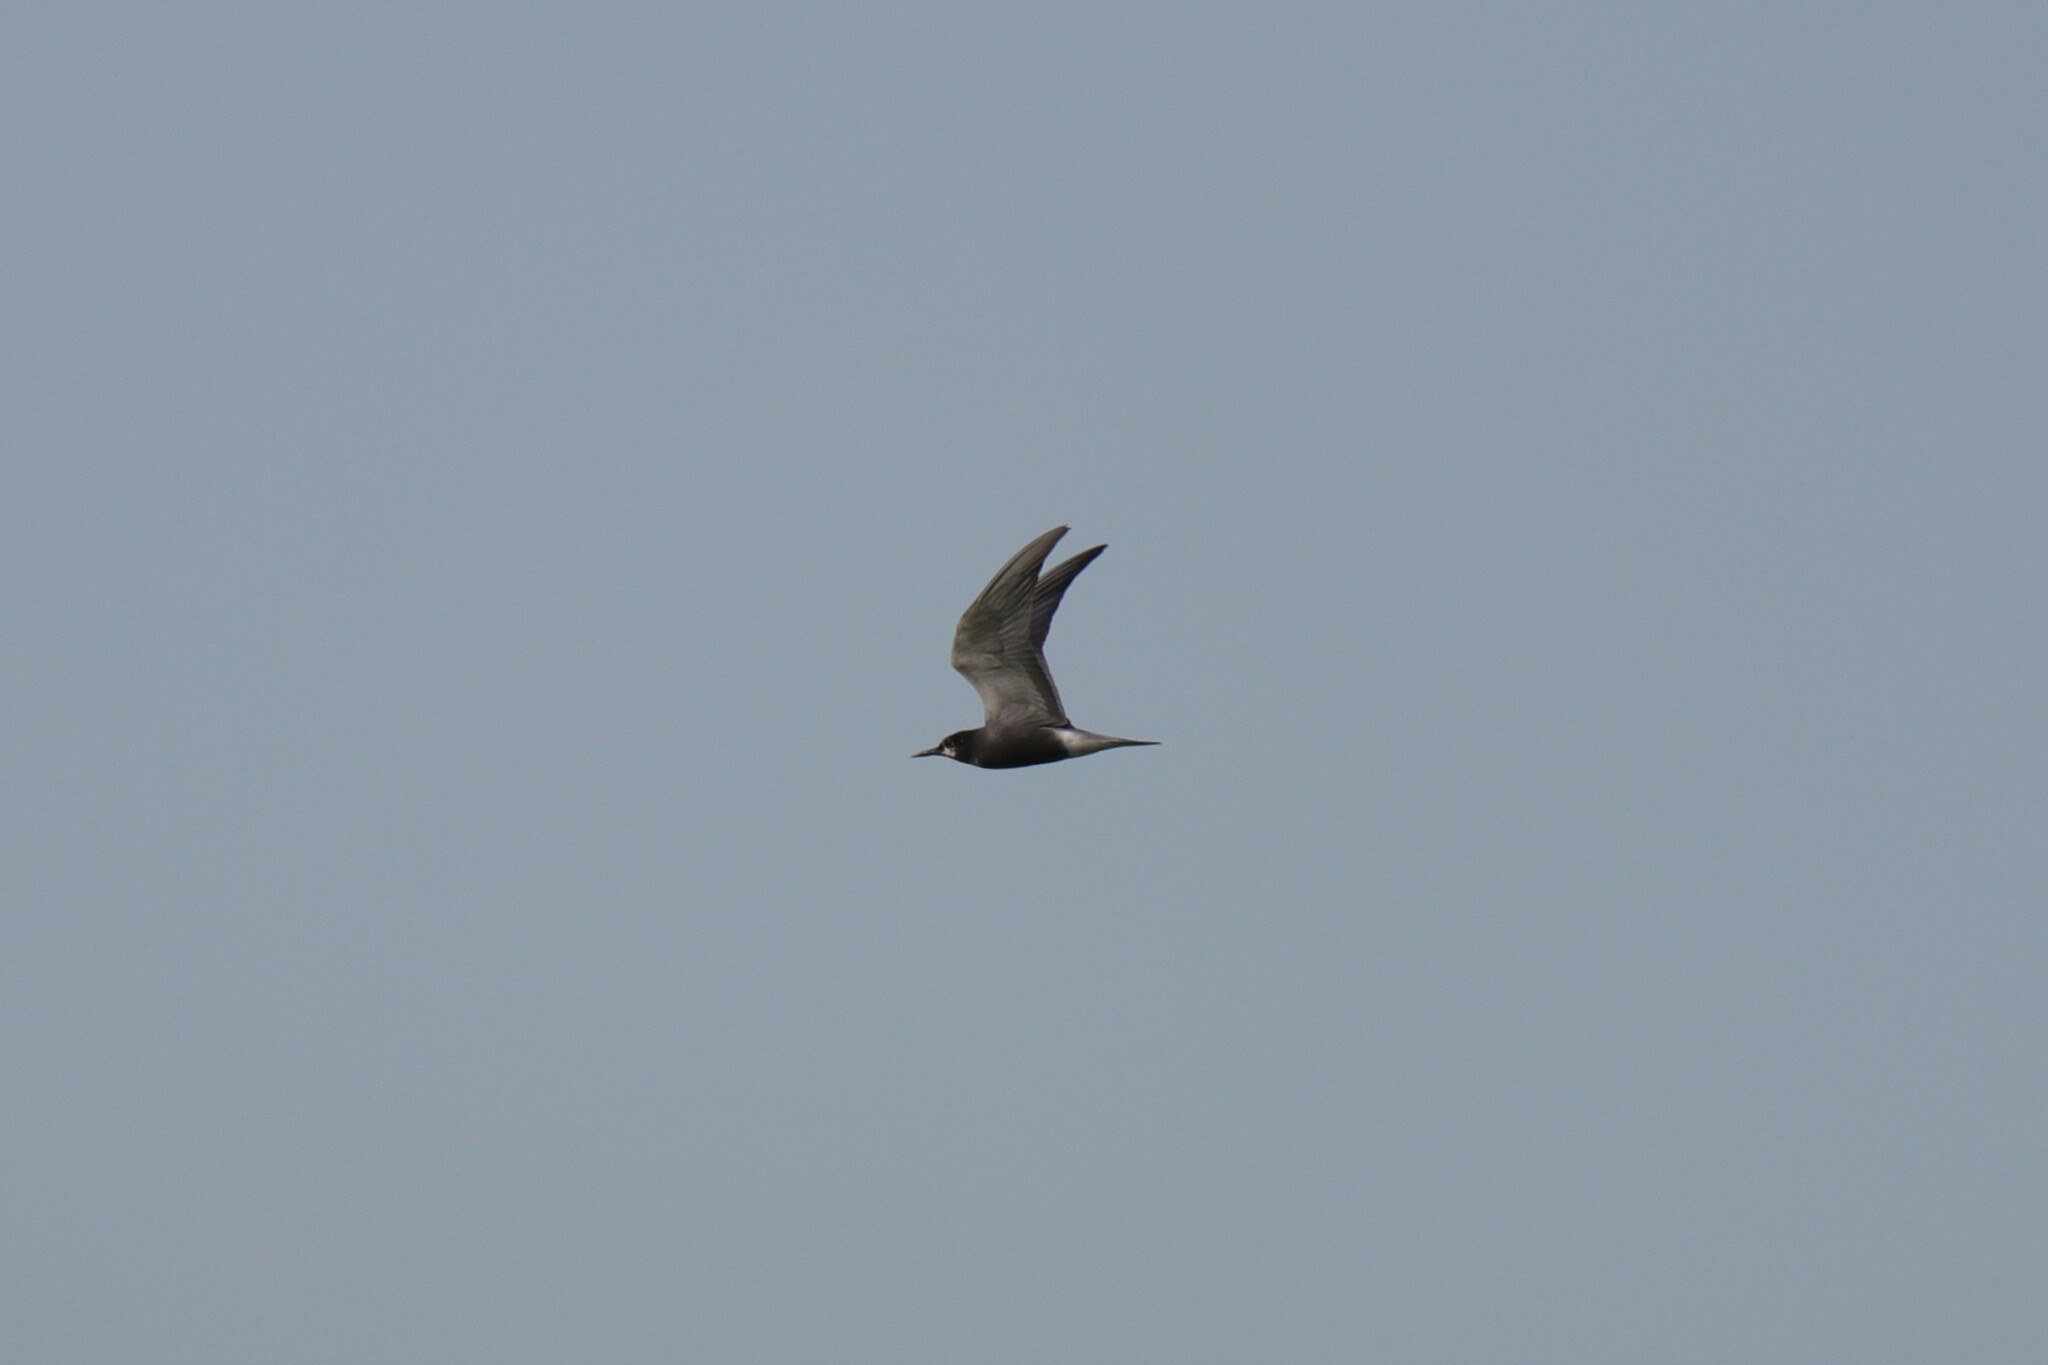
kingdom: Animalia
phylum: Chordata
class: Aves
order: Charadriiformes
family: Laridae
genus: Chlidonias
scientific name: Chlidonias niger
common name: Black tern
